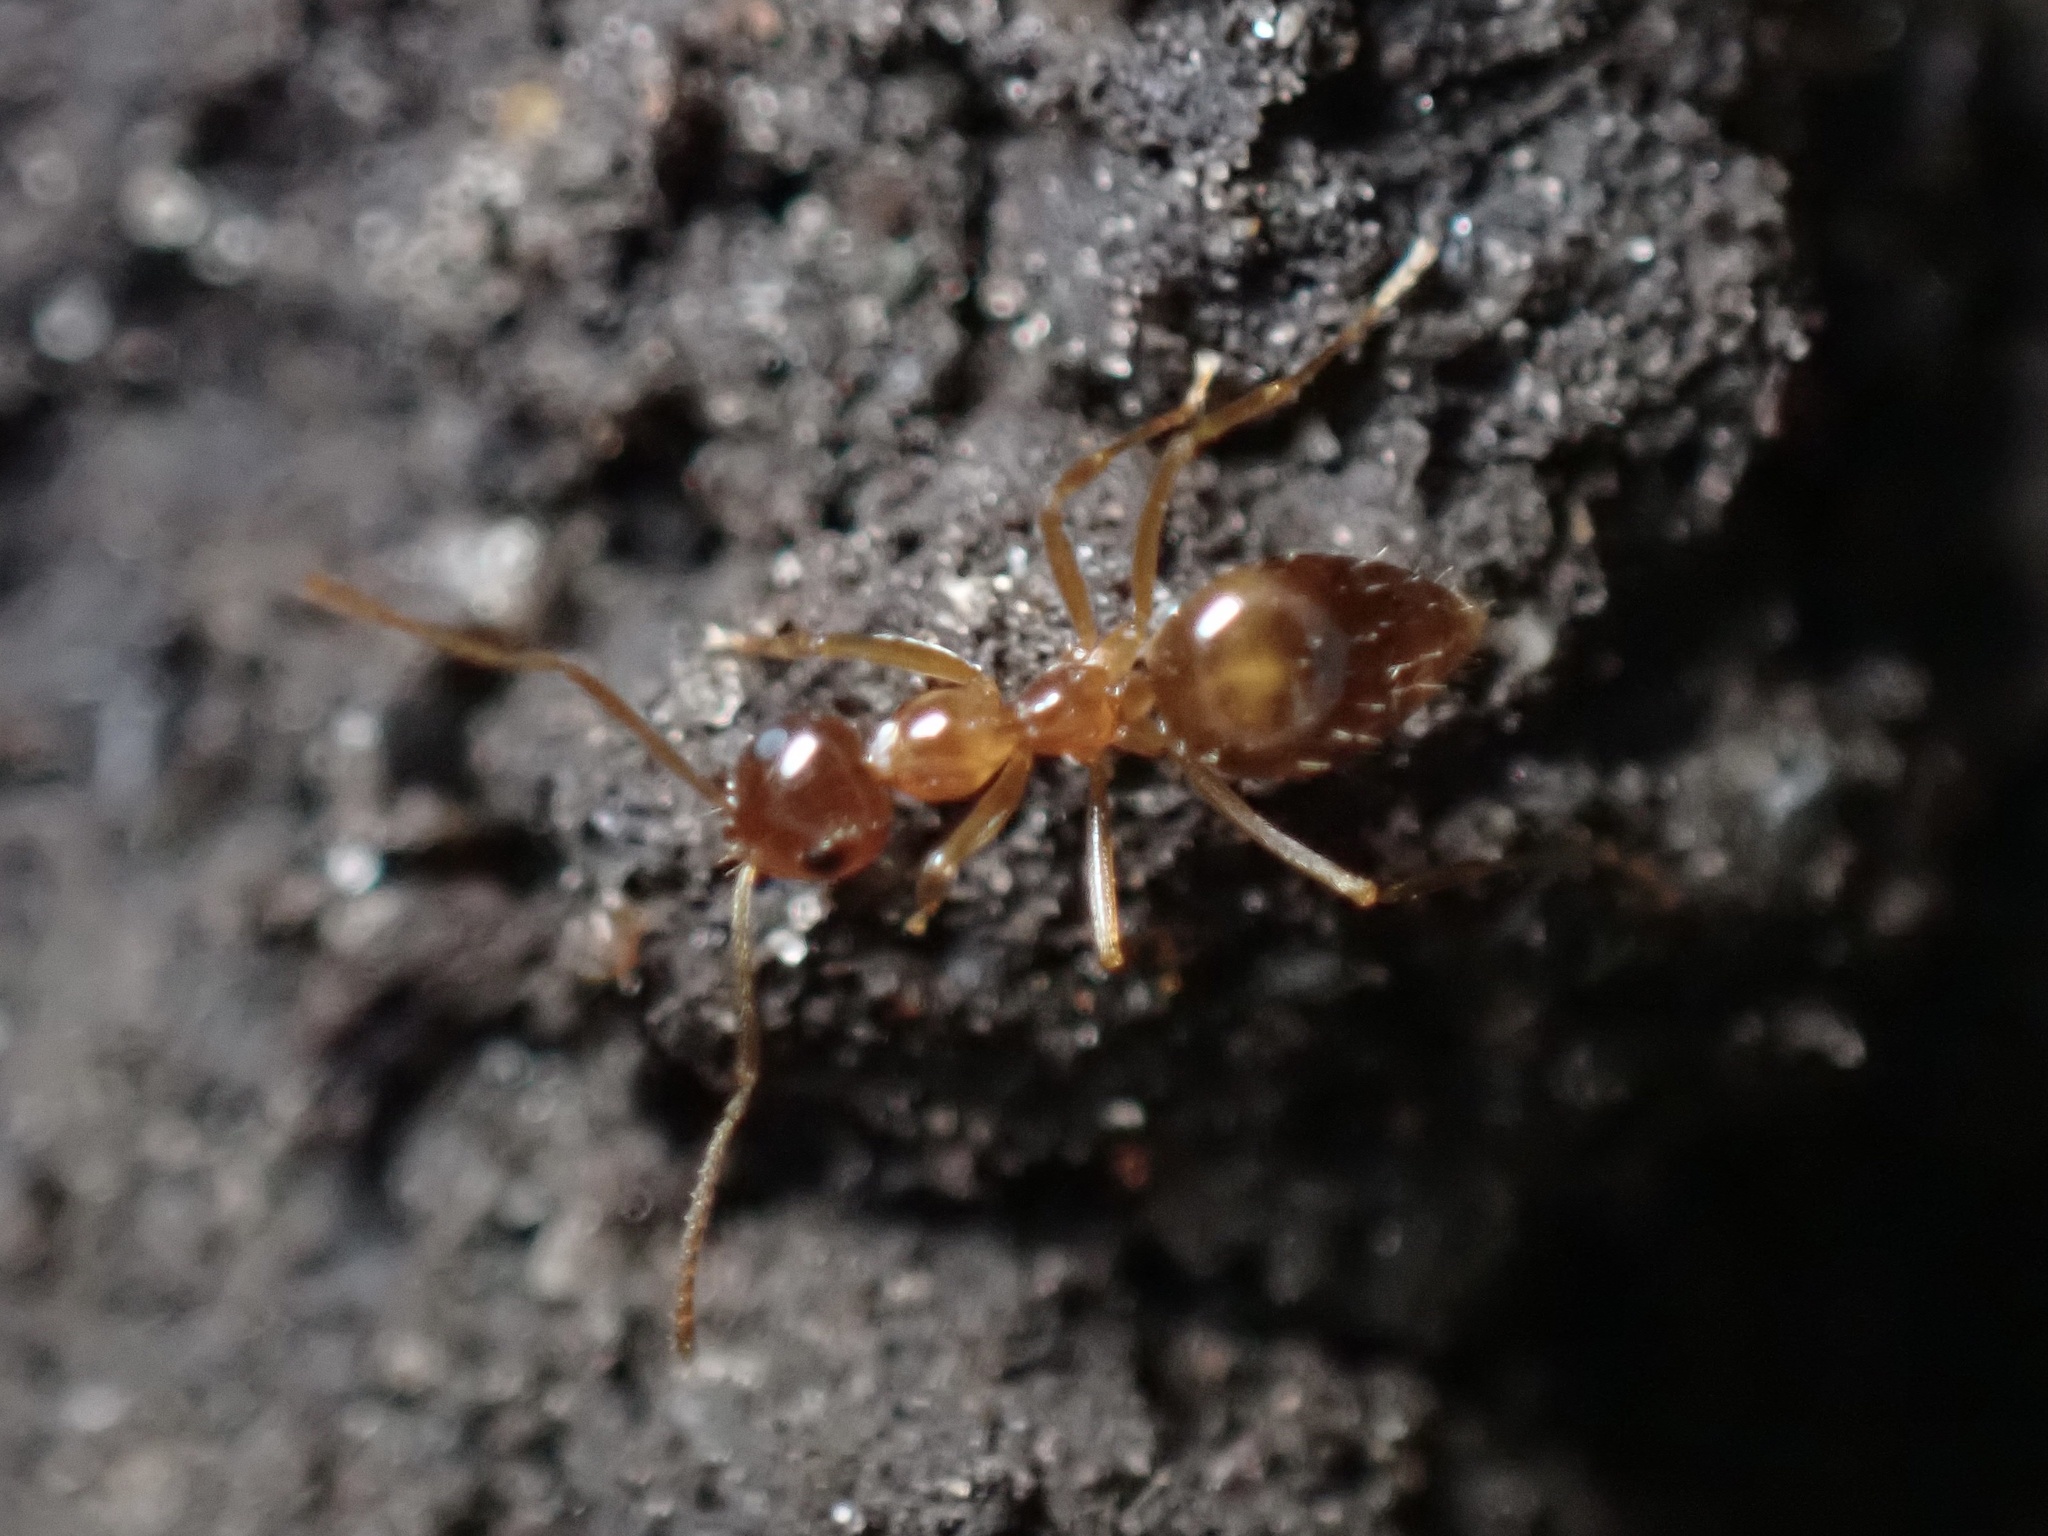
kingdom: Animalia
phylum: Arthropoda
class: Insecta
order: Hymenoptera
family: Formicidae
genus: Prenolepis
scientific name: Prenolepis imparis
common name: Small honey ant
